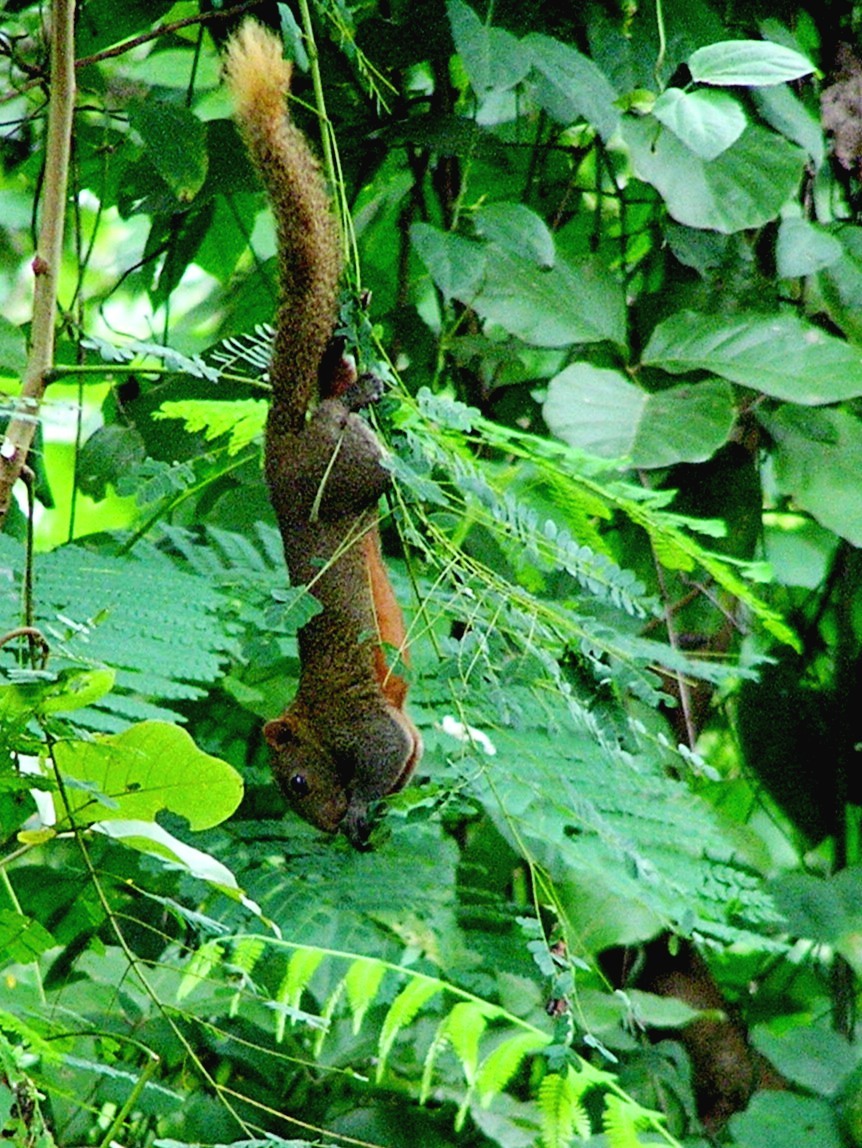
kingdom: Animalia
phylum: Chordata
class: Mammalia
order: Rodentia
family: Sciuridae
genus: Callosciurus
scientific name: Callosciurus erythraeus
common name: Pallas's squirrel
